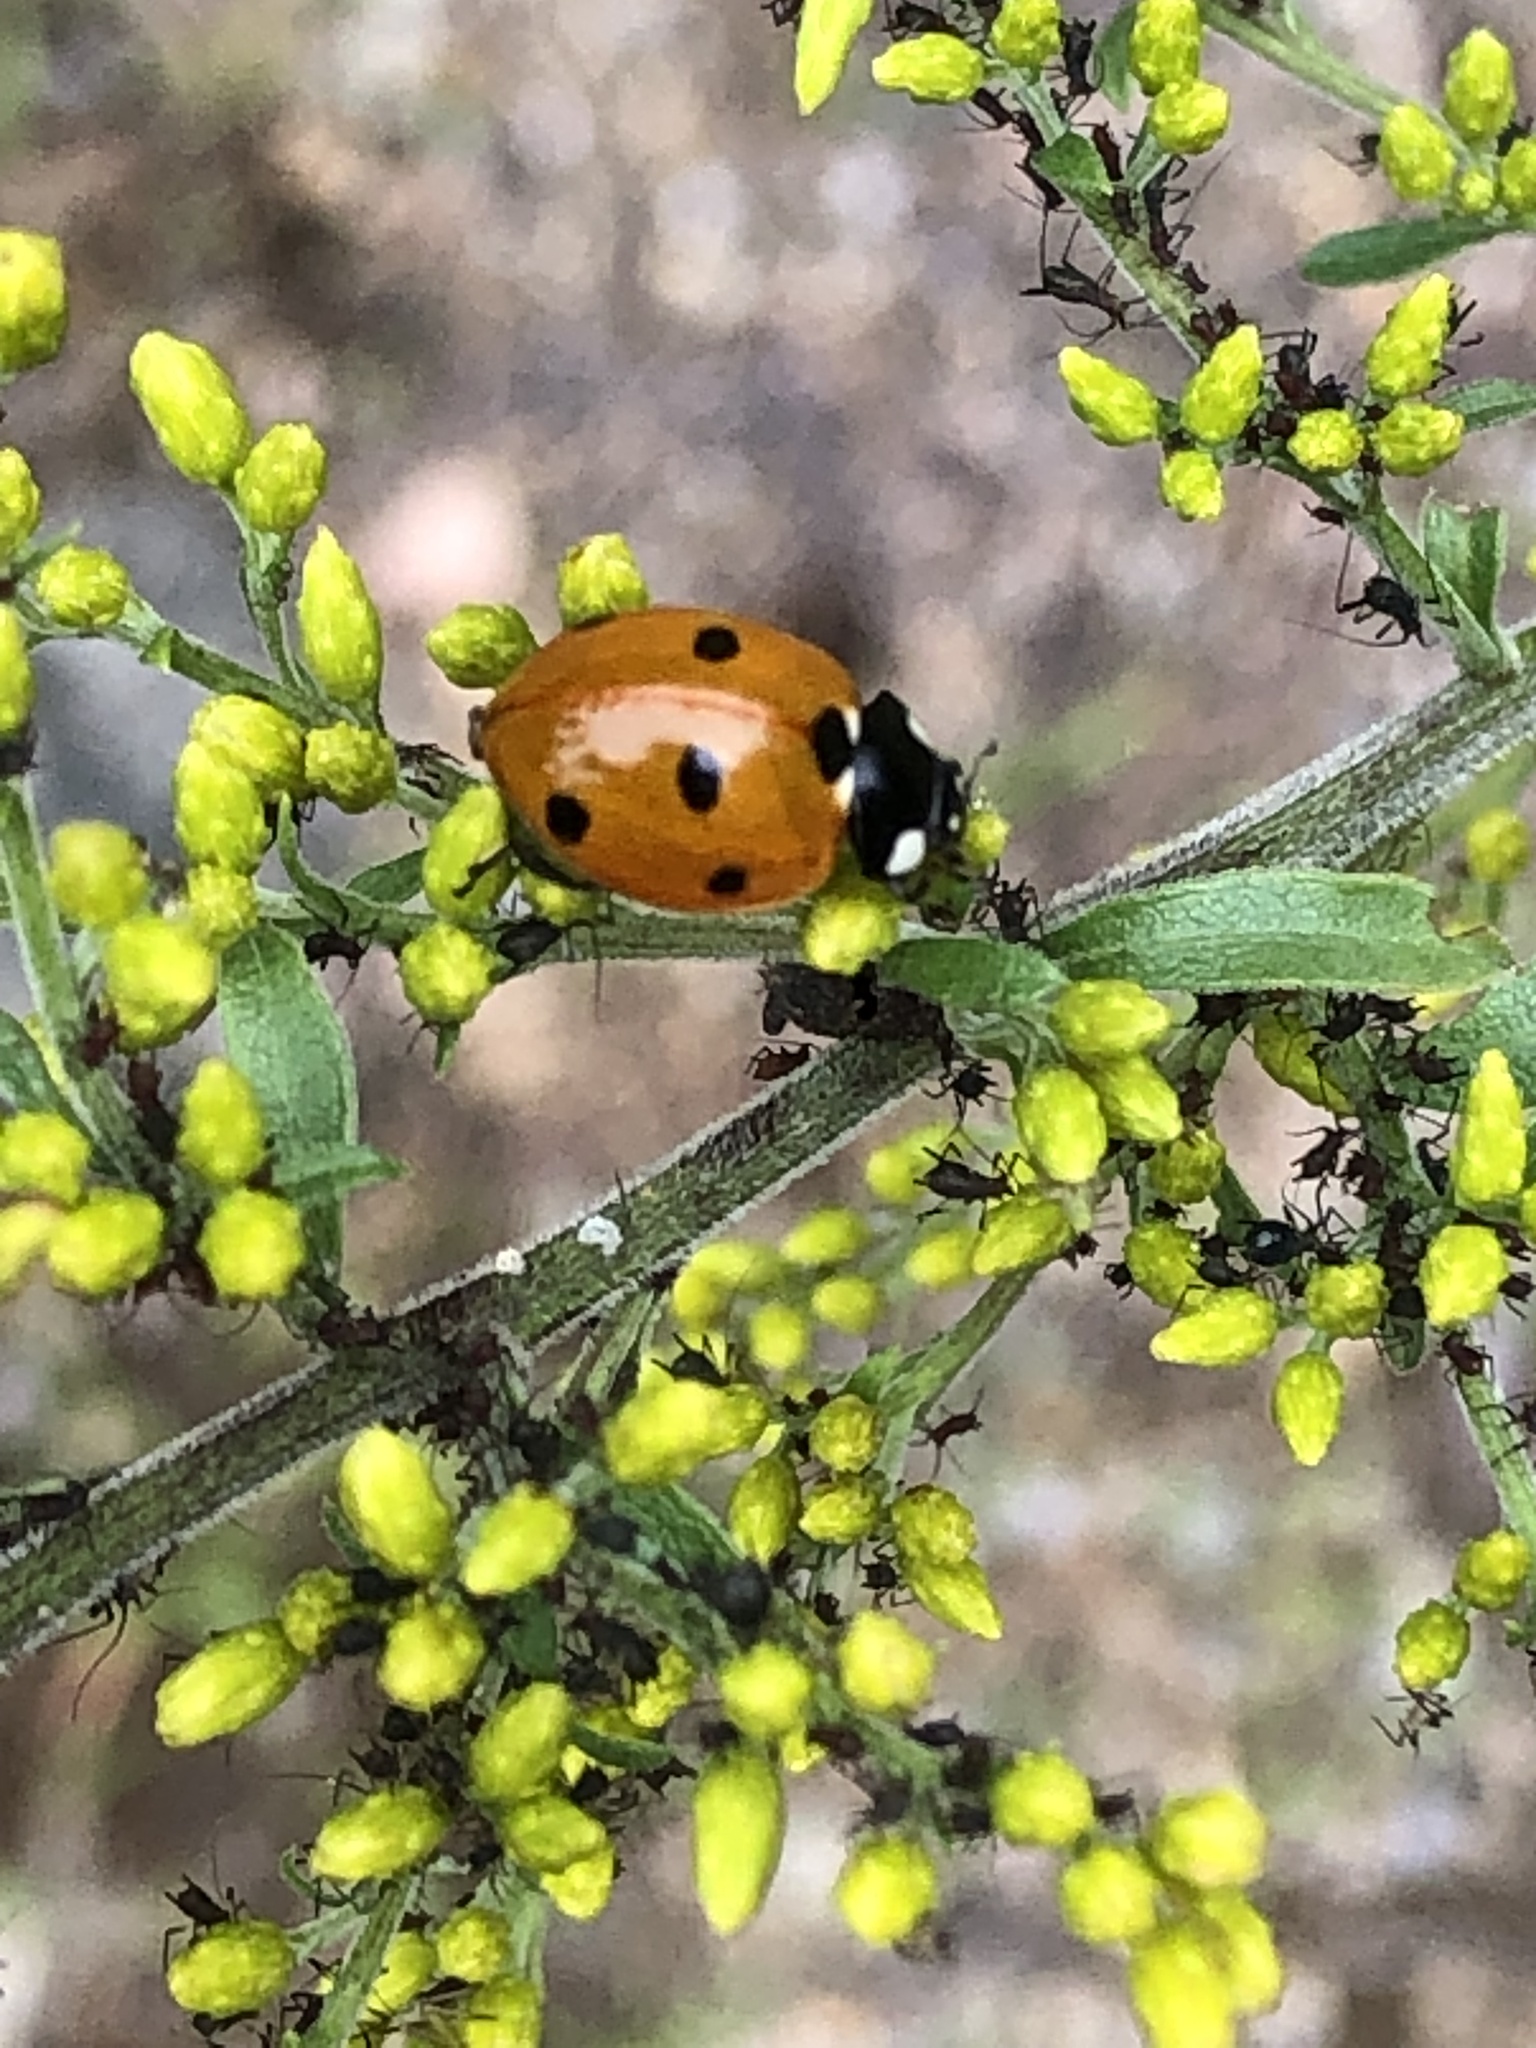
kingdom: Animalia
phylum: Arthropoda
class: Insecta
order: Coleoptera
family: Coccinellidae
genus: Coccinella
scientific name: Coccinella septempunctata
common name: Sevenspotted lady beetle
